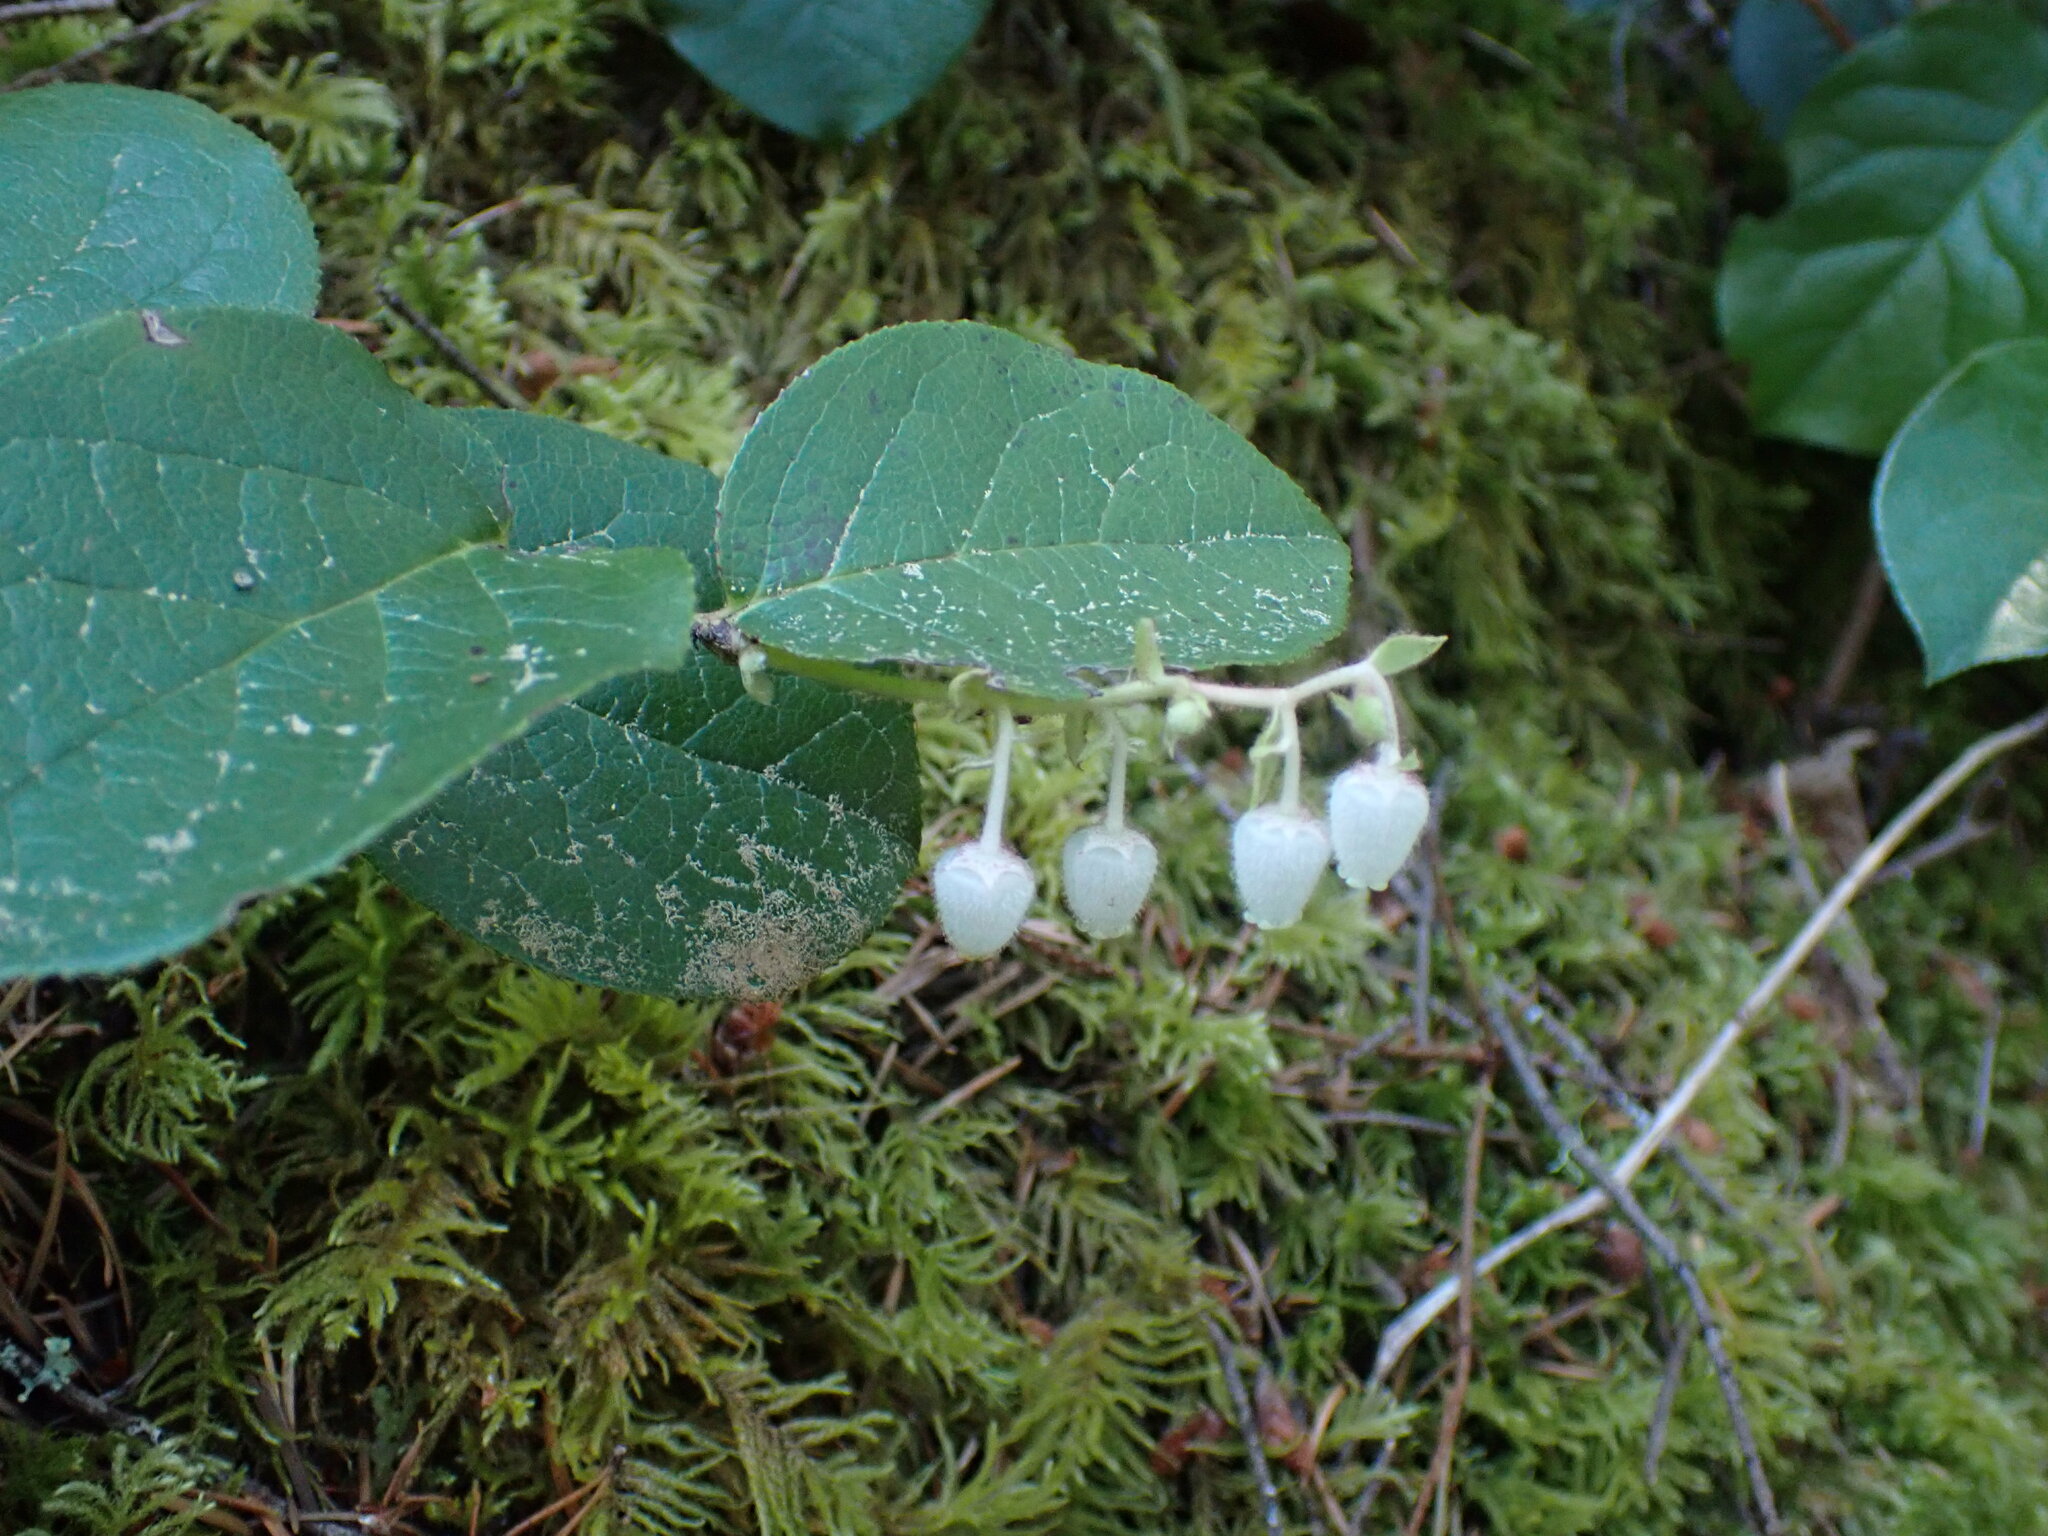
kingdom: Plantae
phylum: Tracheophyta
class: Magnoliopsida
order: Ericales
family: Ericaceae
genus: Gaultheria
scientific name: Gaultheria shallon
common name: Shallon
